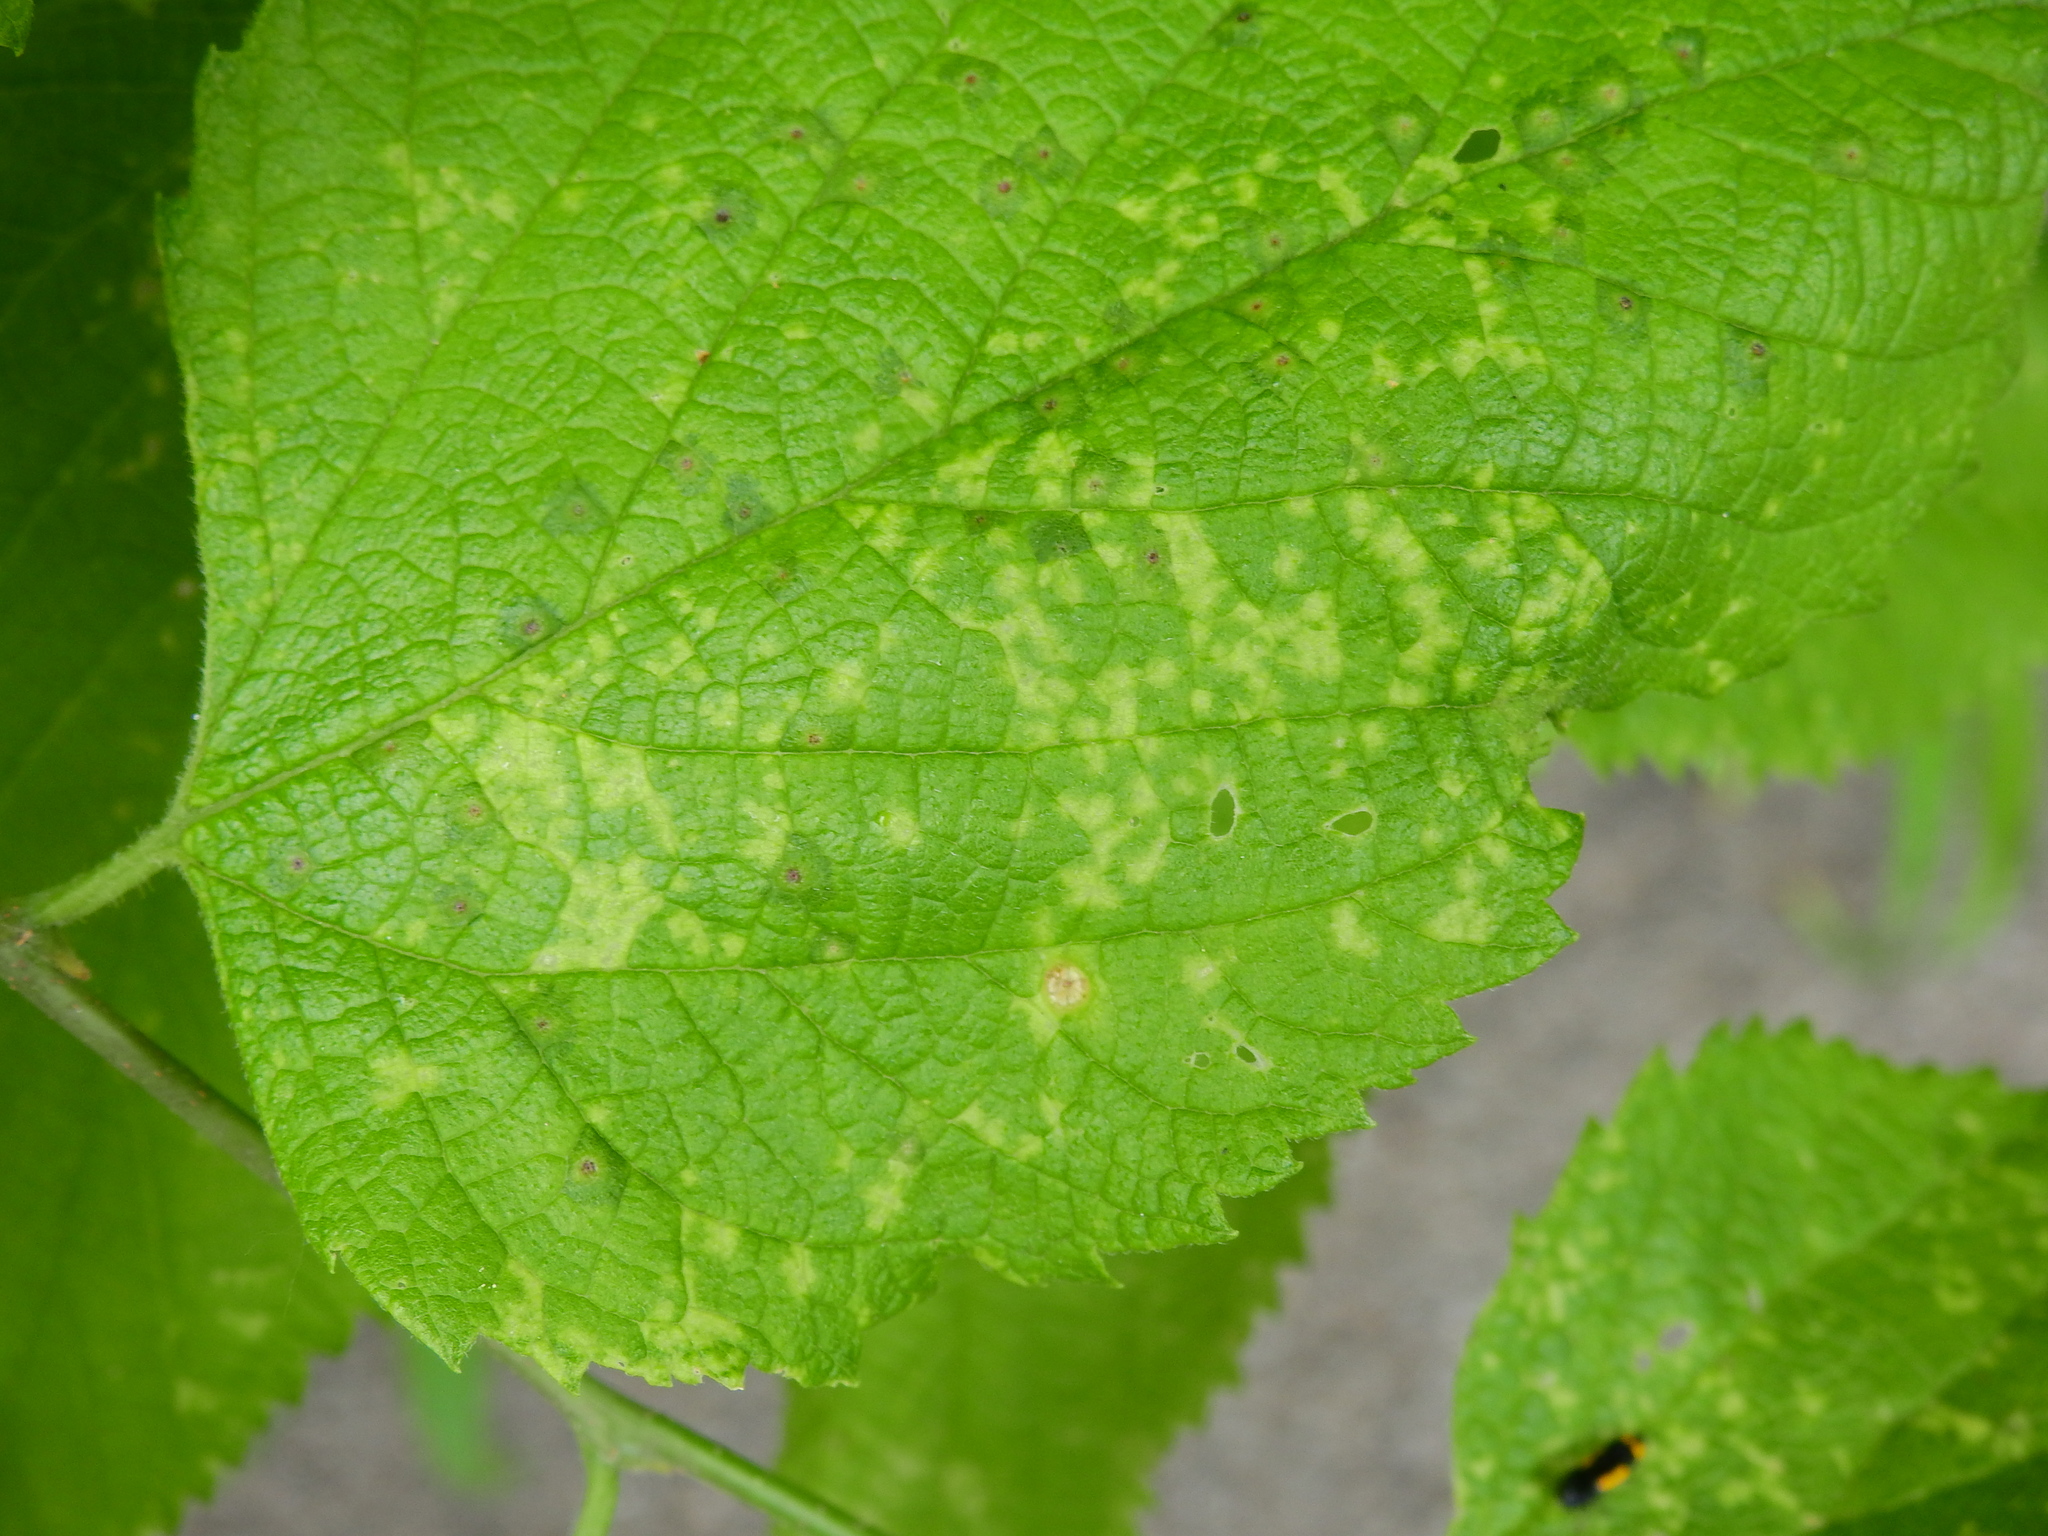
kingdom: Viruses
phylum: Kitrinoviricota
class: Alsuviricetes
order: Martellivirales
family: Closteroviridae
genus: Ampelovirus
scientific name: Ampelovirus
